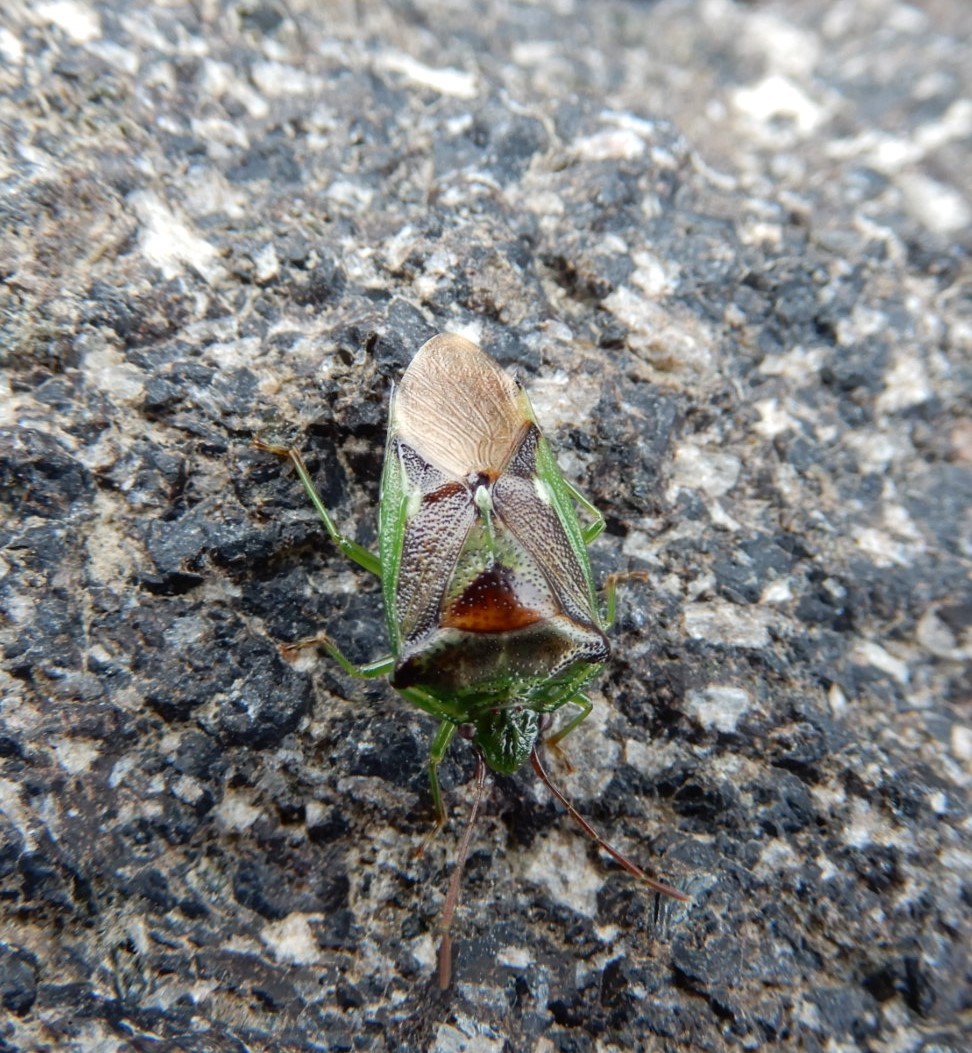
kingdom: Animalia
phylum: Arthropoda
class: Insecta
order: Hemiptera
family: Acanthosomatidae
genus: Oncacontias
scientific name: Oncacontias vittatus
